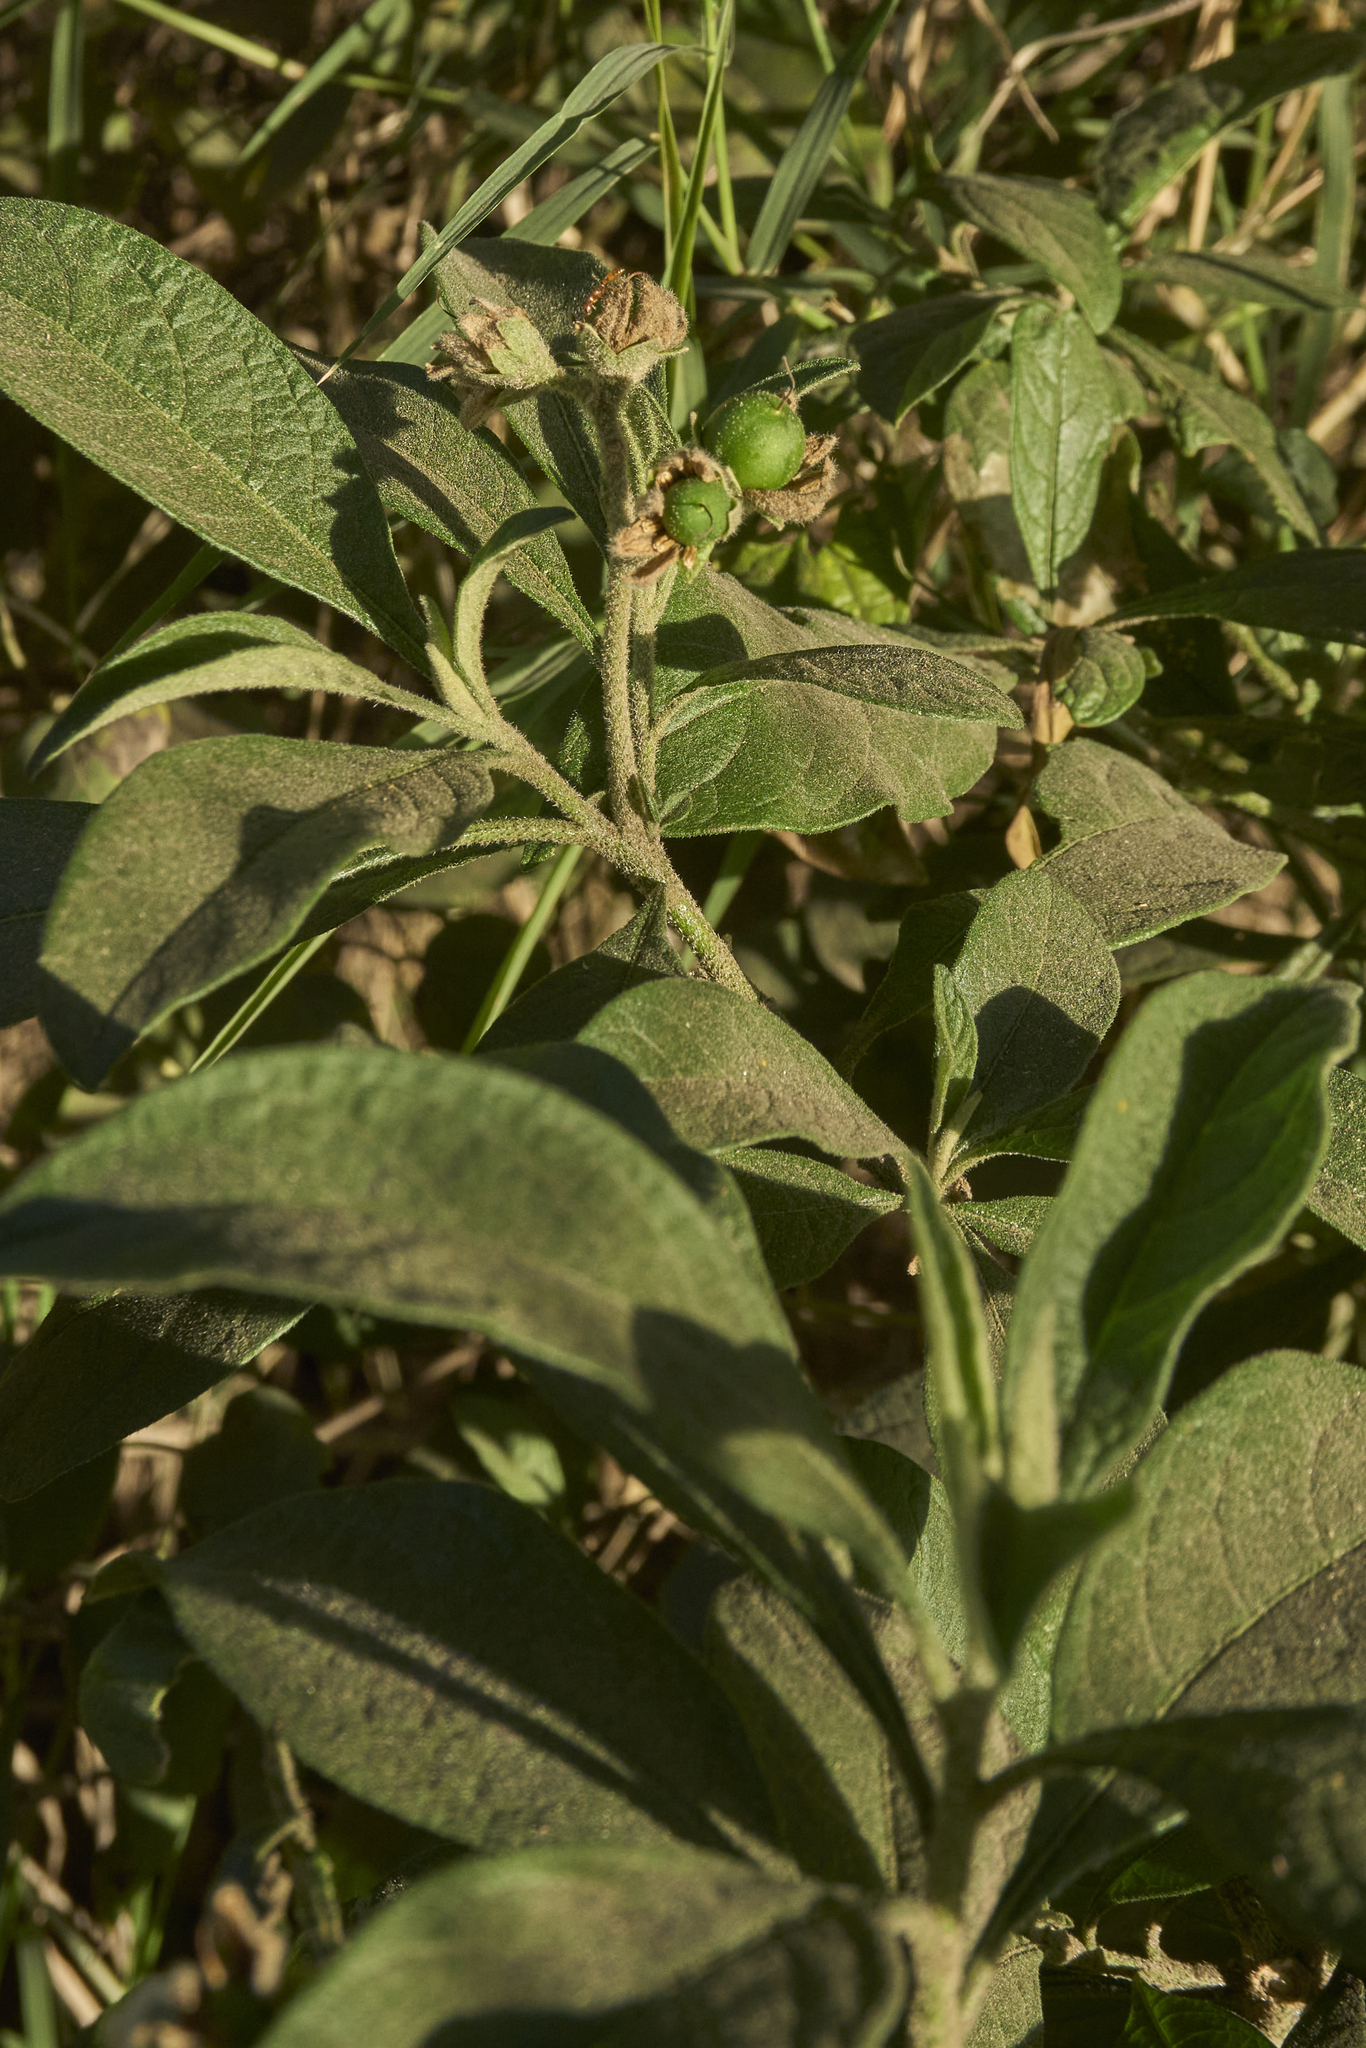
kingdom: Plantae
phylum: Tracheophyta
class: Magnoliopsida
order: Solanales
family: Solanaceae
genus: Solanum
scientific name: Solanum umbellatum
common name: Nightshade
